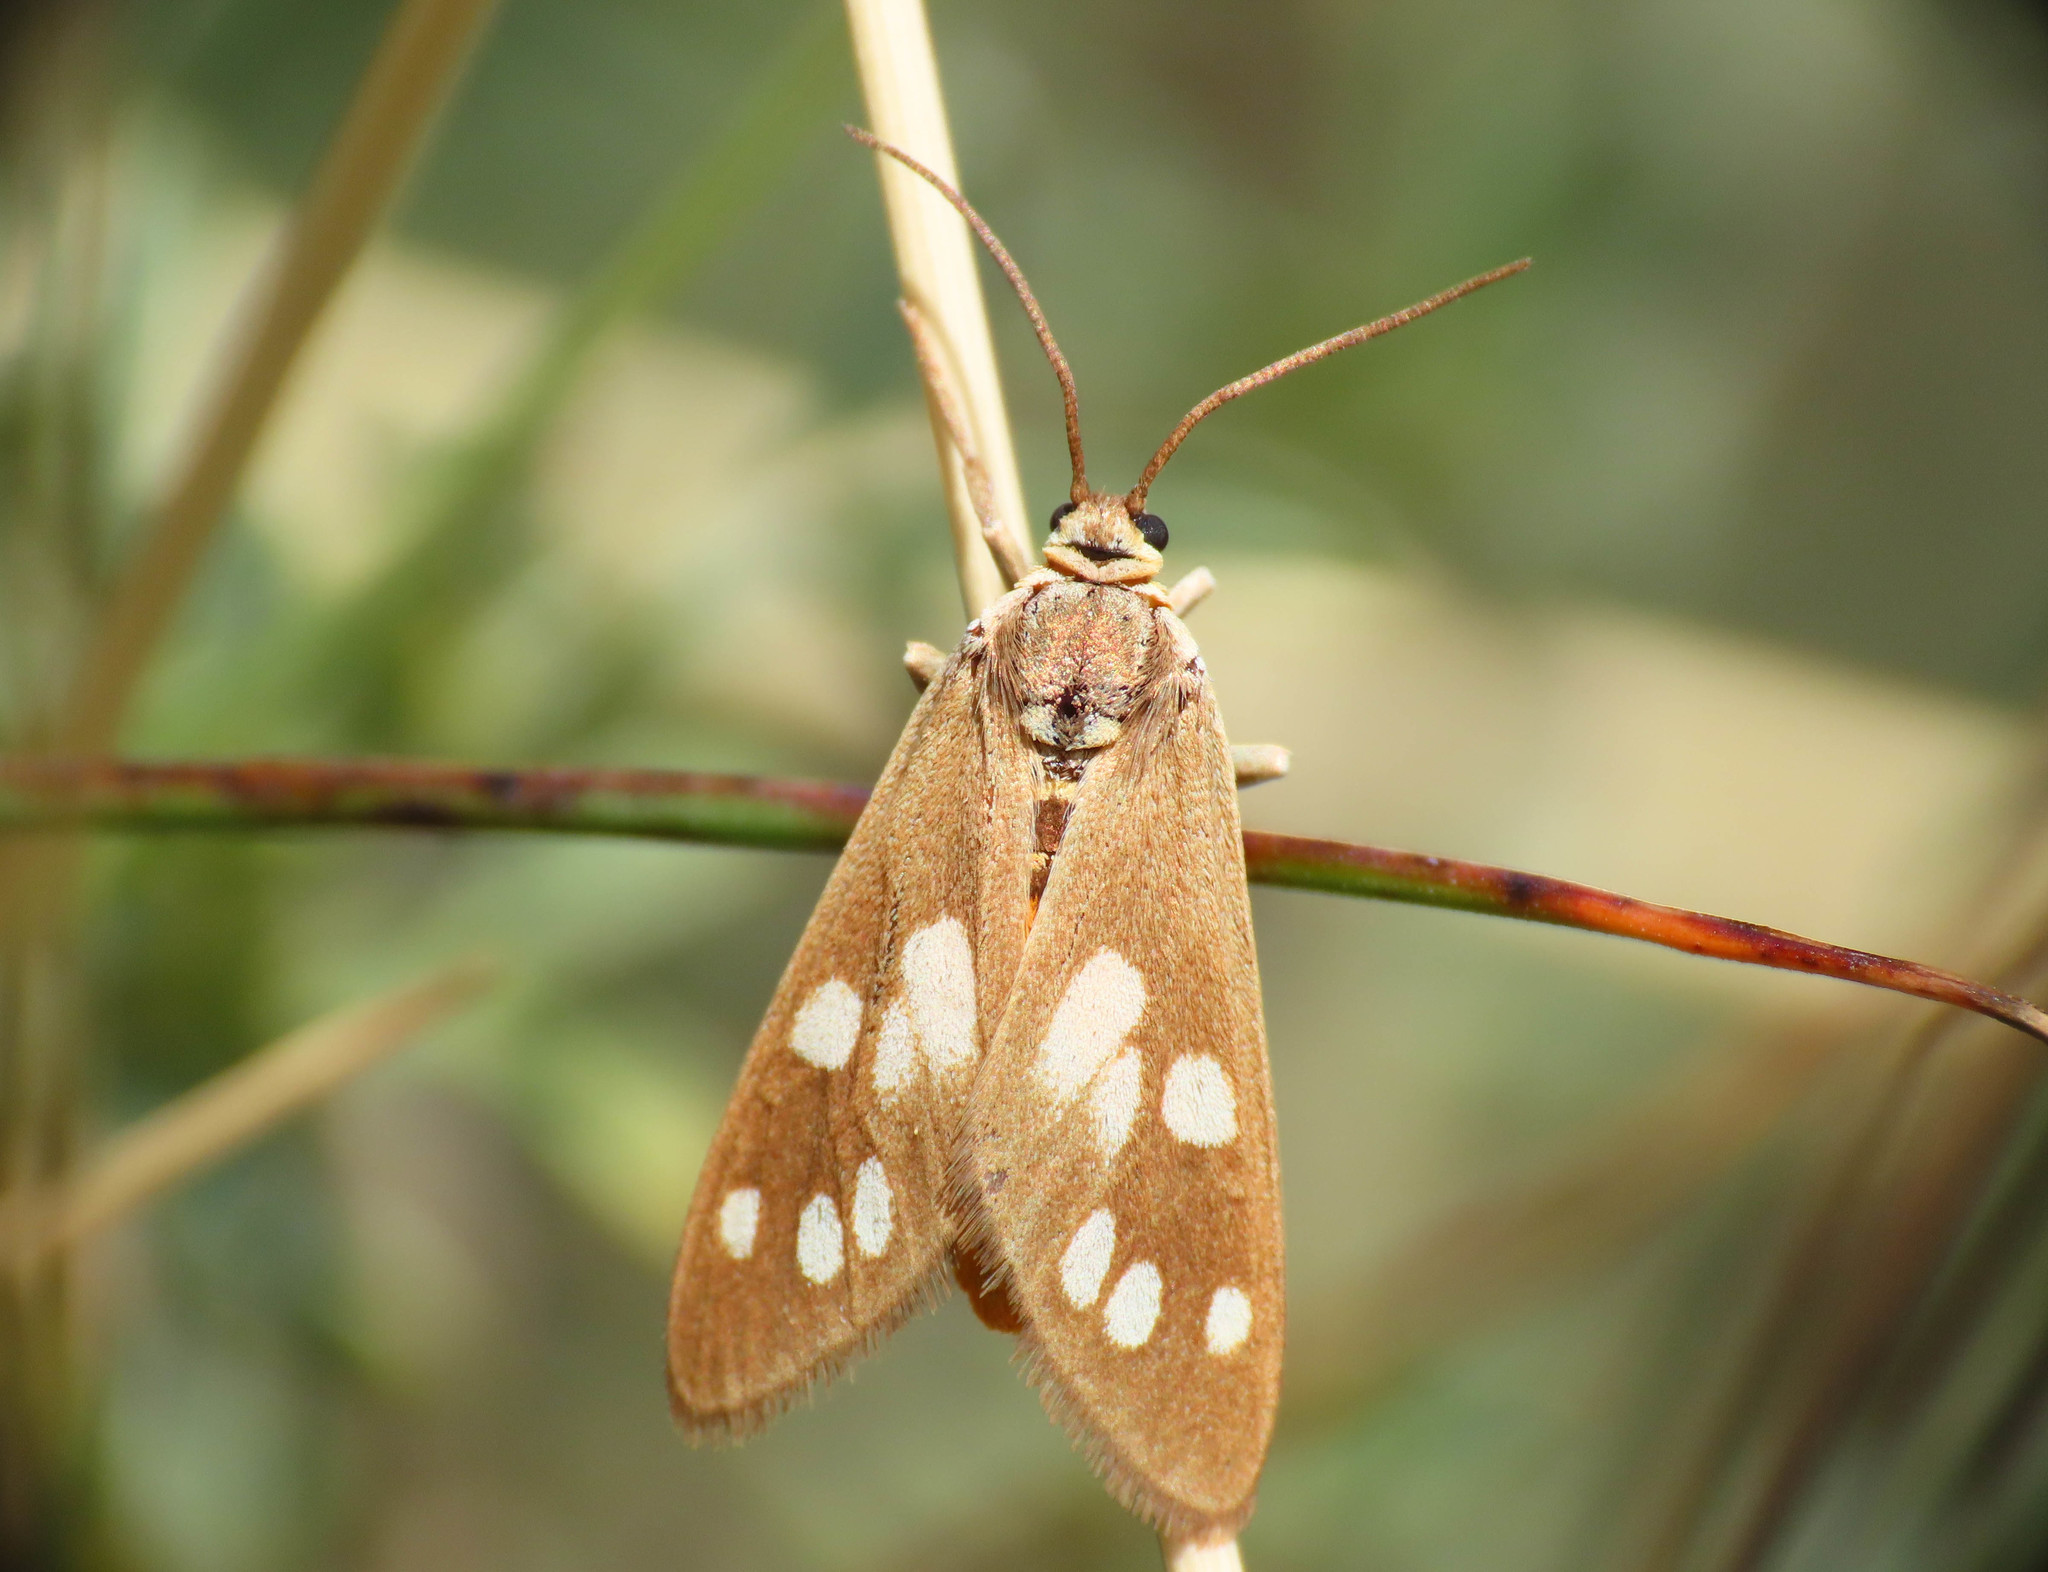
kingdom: Animalia
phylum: Arthropoda
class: Insecta
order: Lepidoptera
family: Erebidae
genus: Dysauxes
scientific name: Dysauxes punctata
